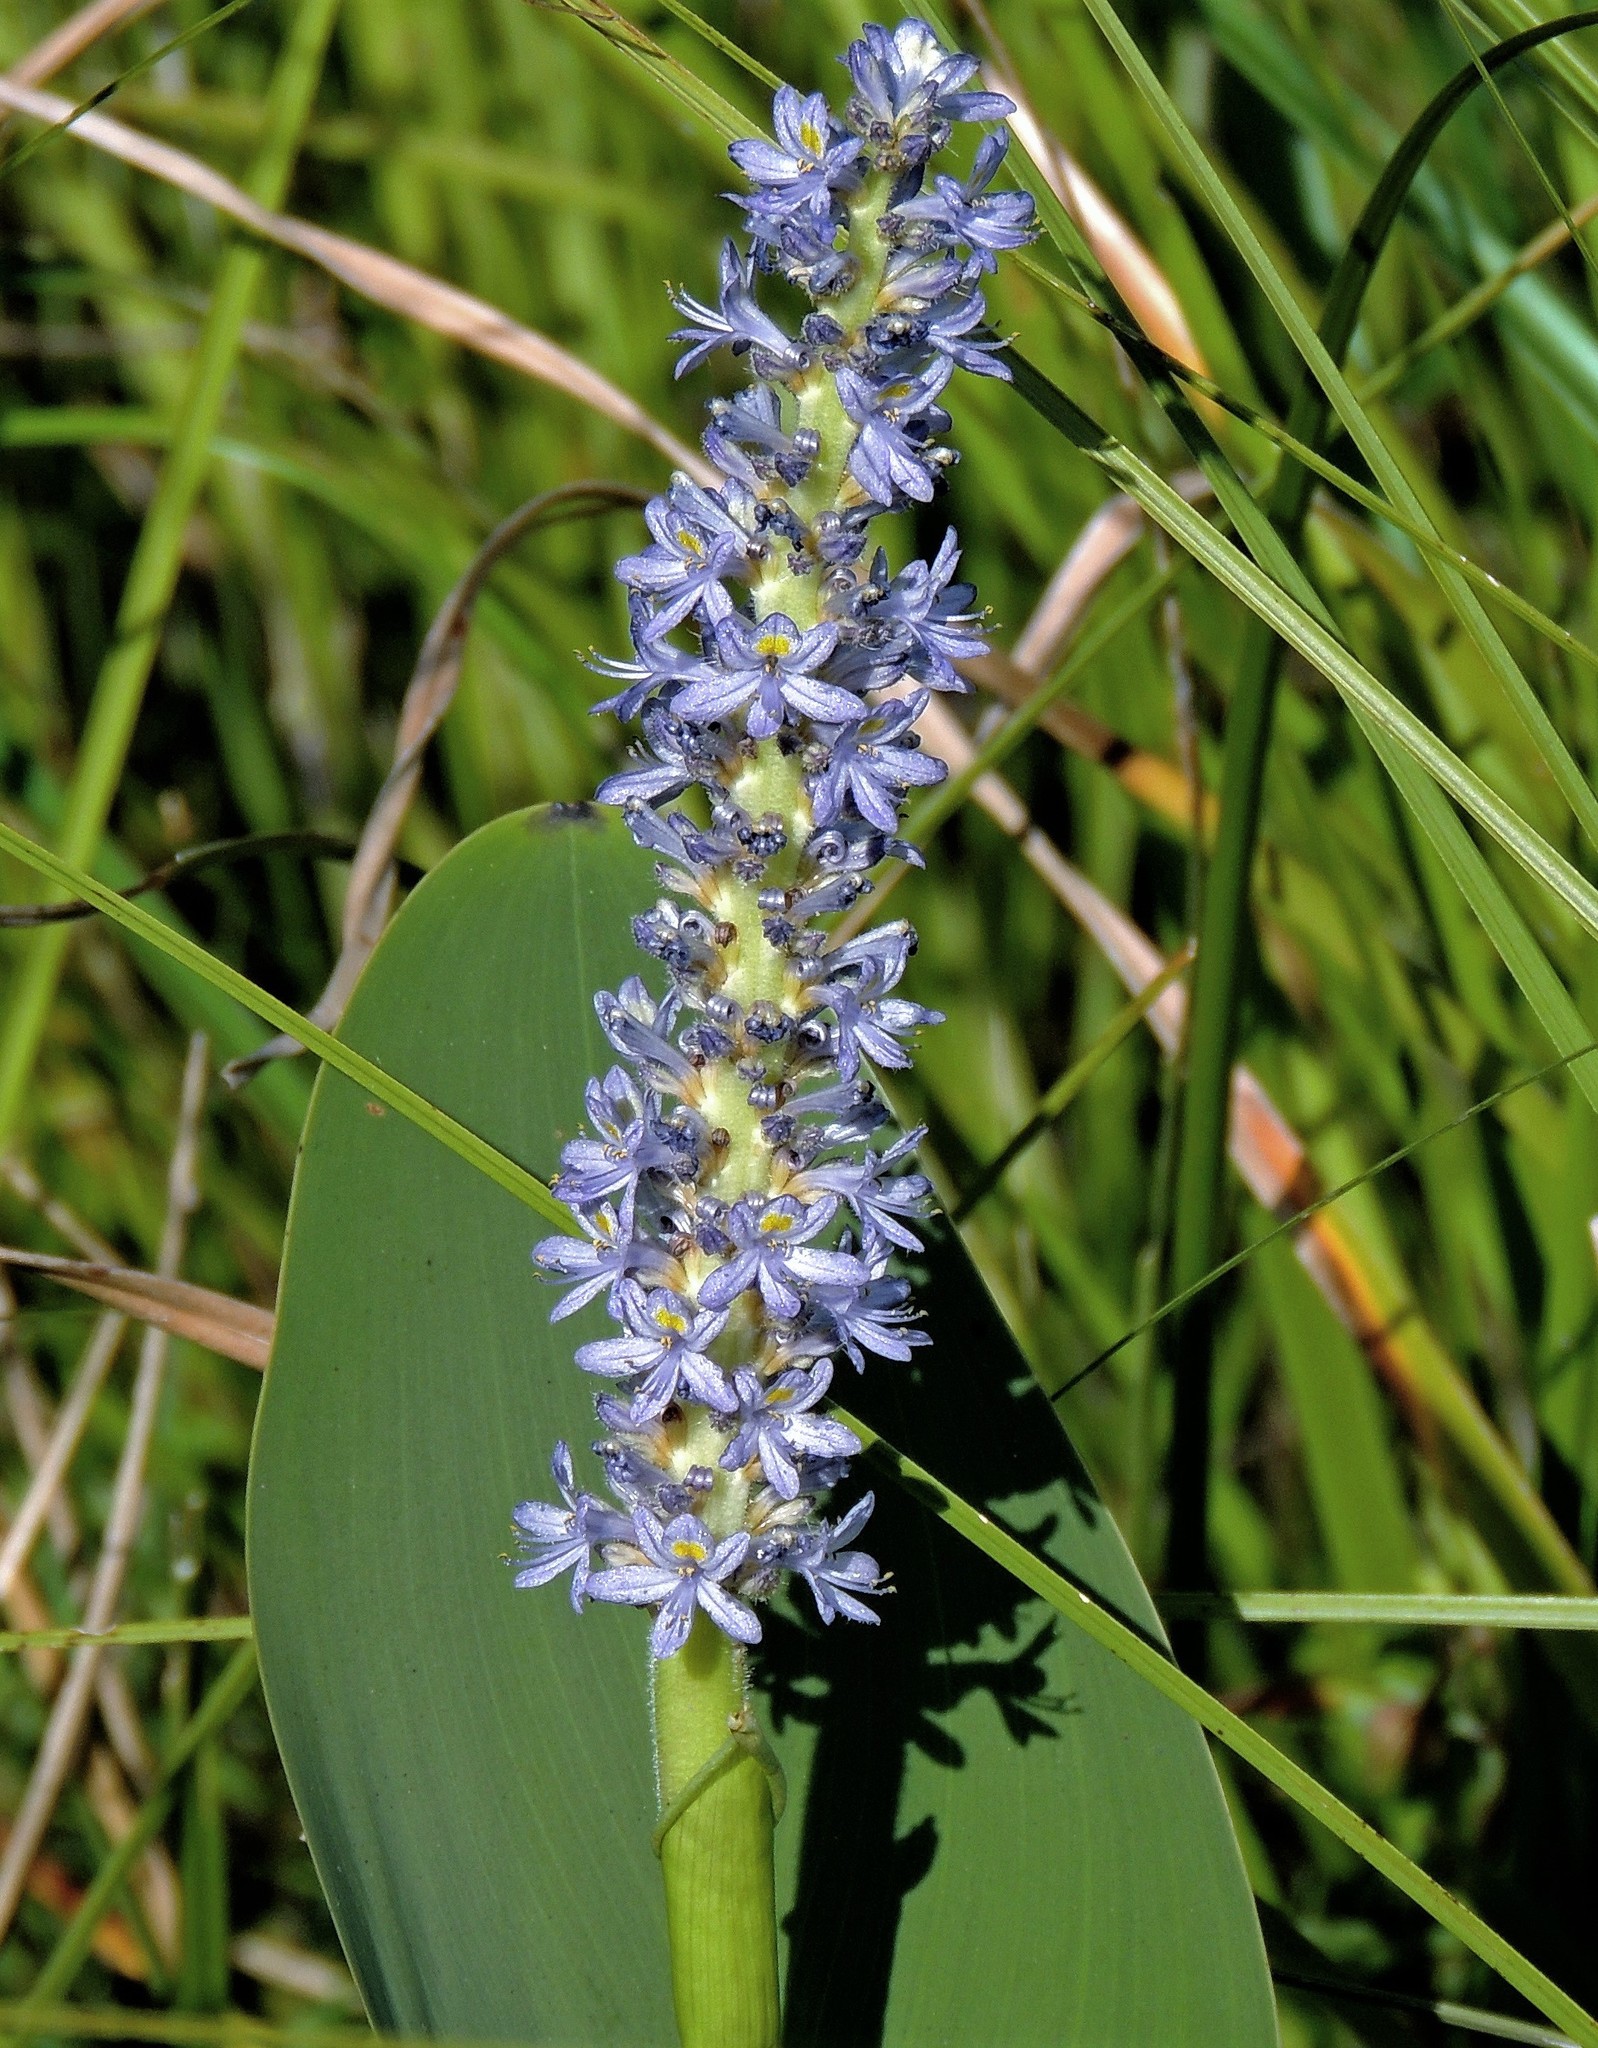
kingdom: Plantae
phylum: Tracheophyta
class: Liliopsida
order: Commelinales
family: Pontederiaceae
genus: Pontederia
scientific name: Pontederia cordata
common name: Pickerelweed
